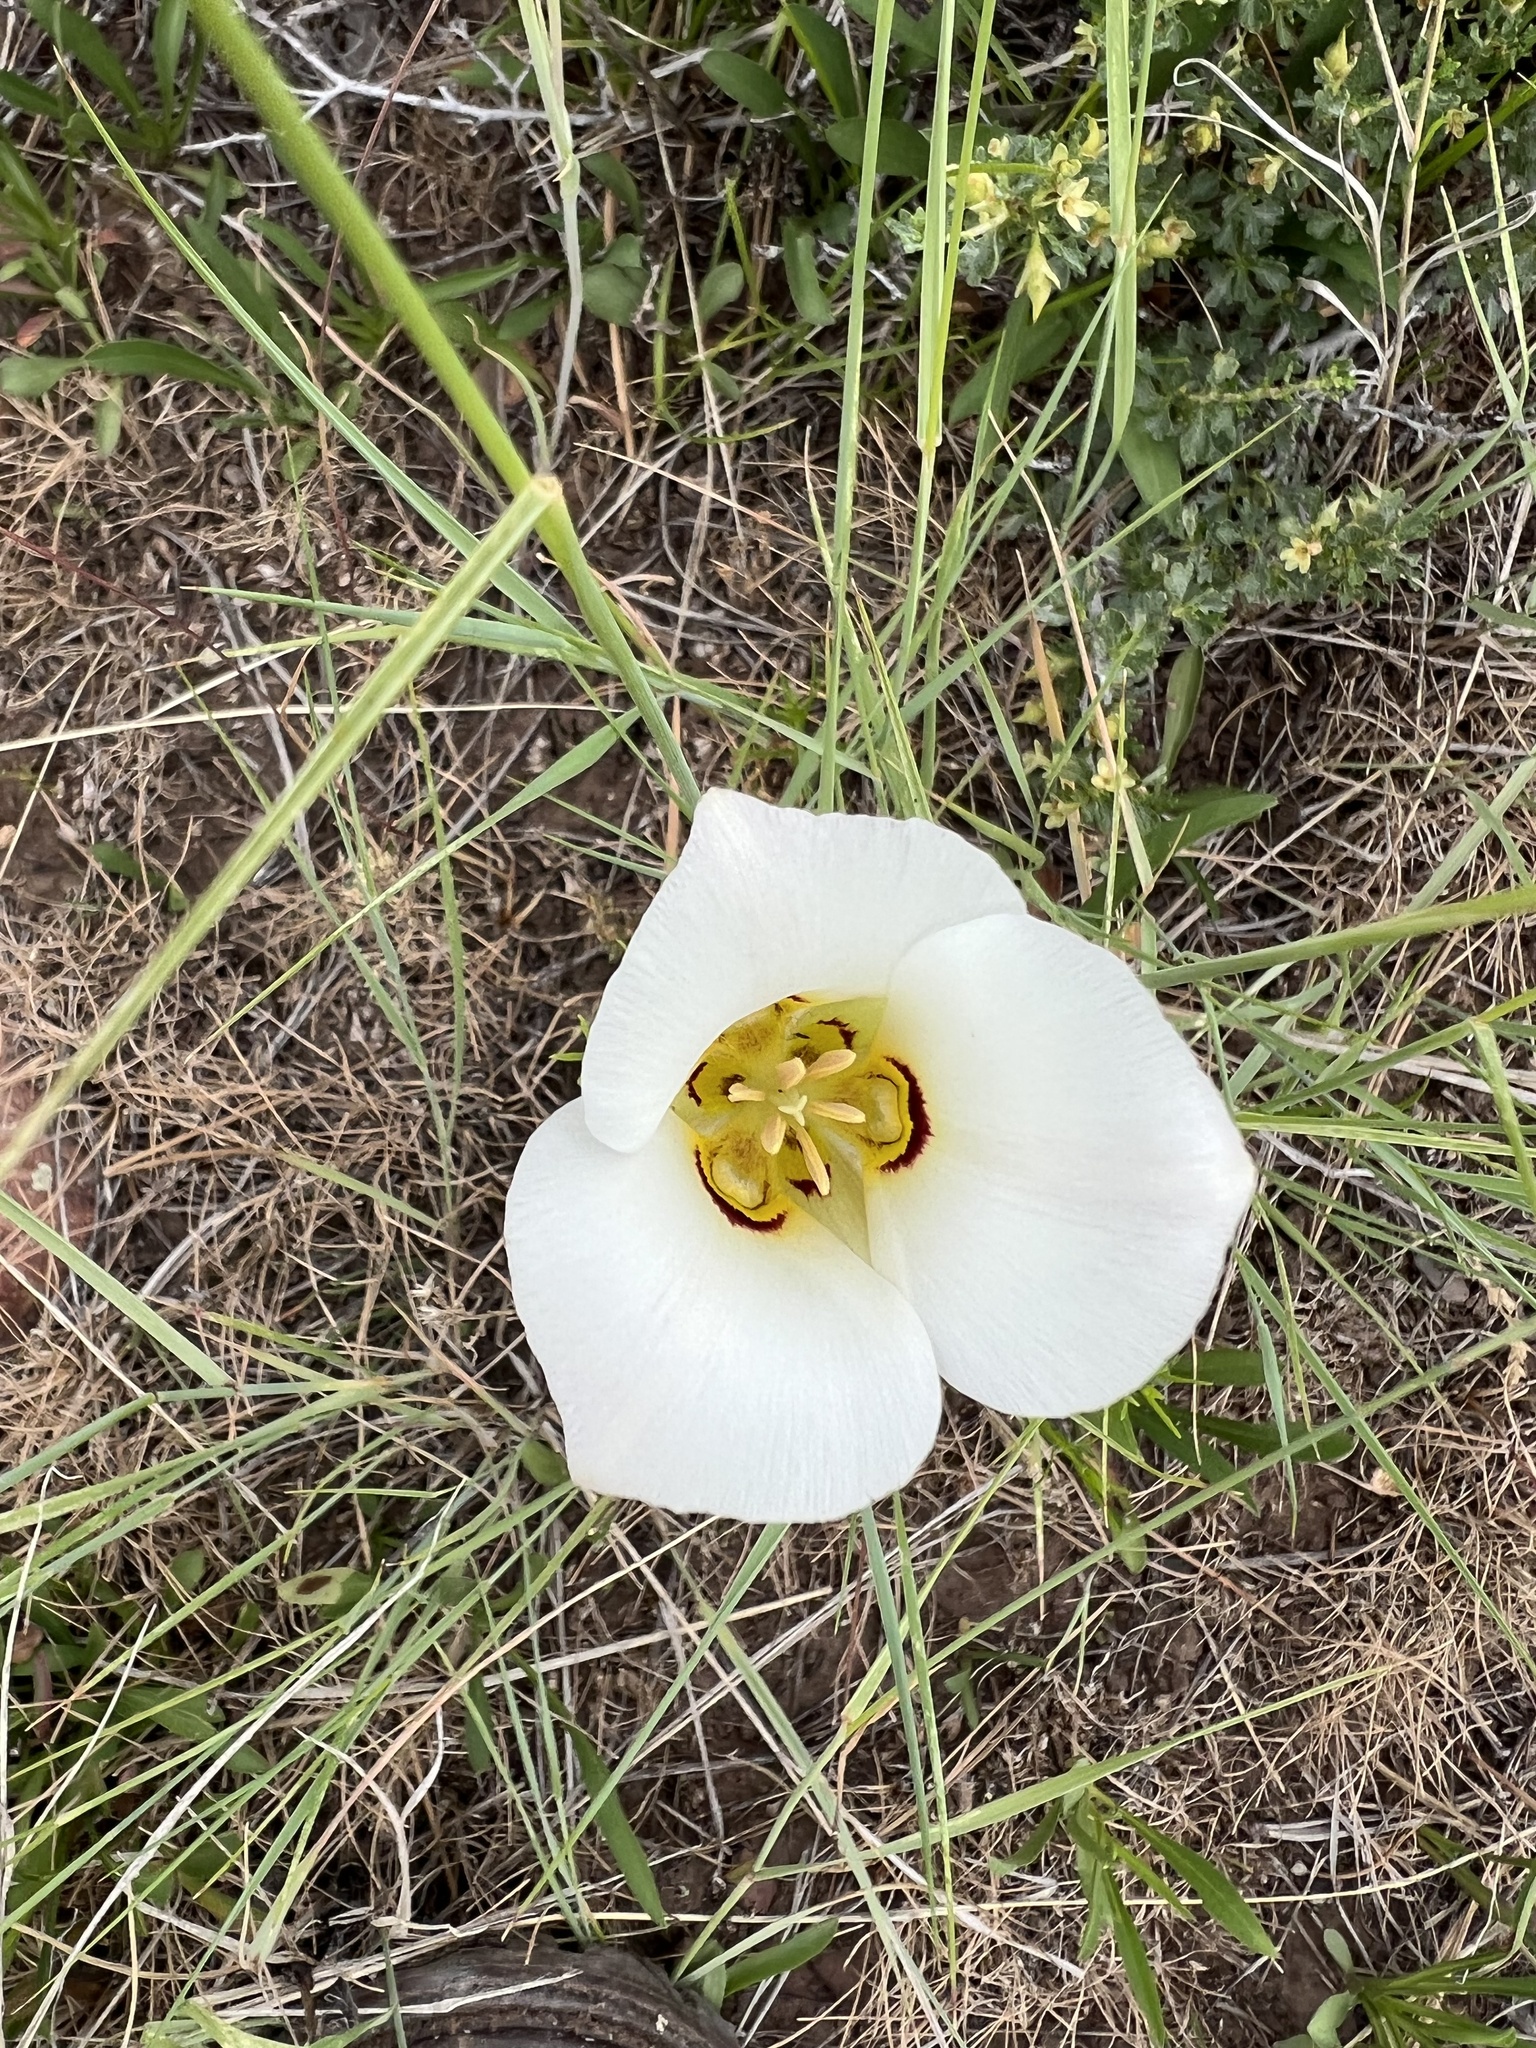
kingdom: Plantae
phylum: Tracheophyta
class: Liliopsida
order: Liliales
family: Liliaceae
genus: Calochortus
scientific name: Calochortus nuttallii
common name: Sego-lily
